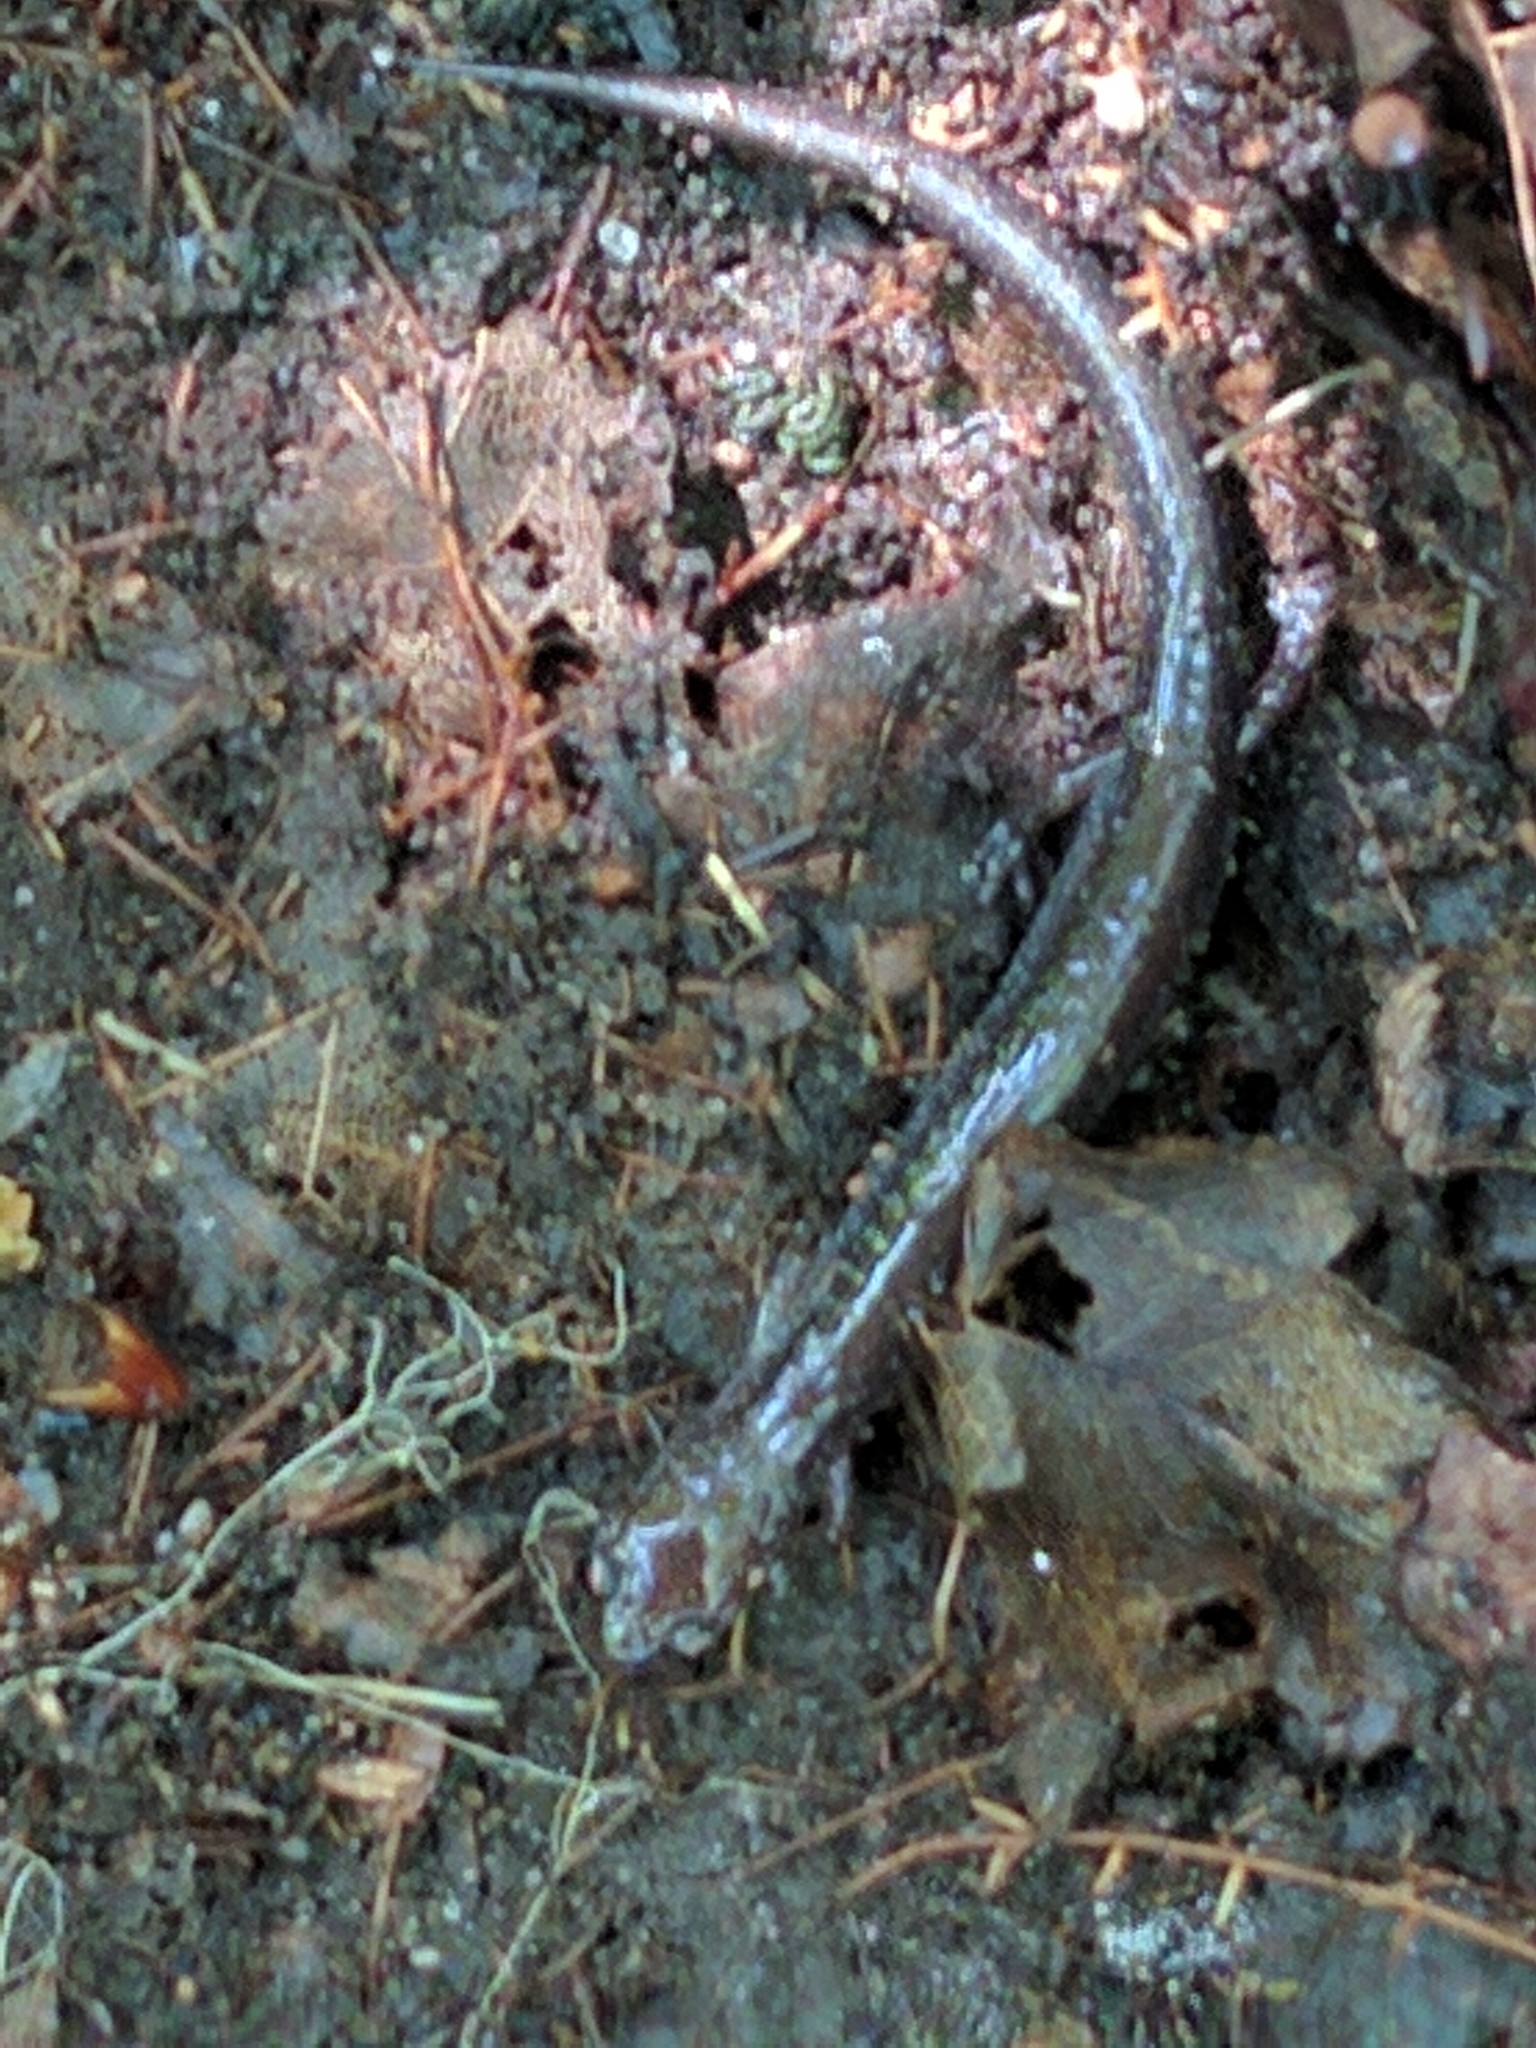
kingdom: Animalia
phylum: Chordata
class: Amphibia
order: Caudata
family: Plethodontidae
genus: Plethodon
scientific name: Plethodon cinereus
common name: Redback salamander
